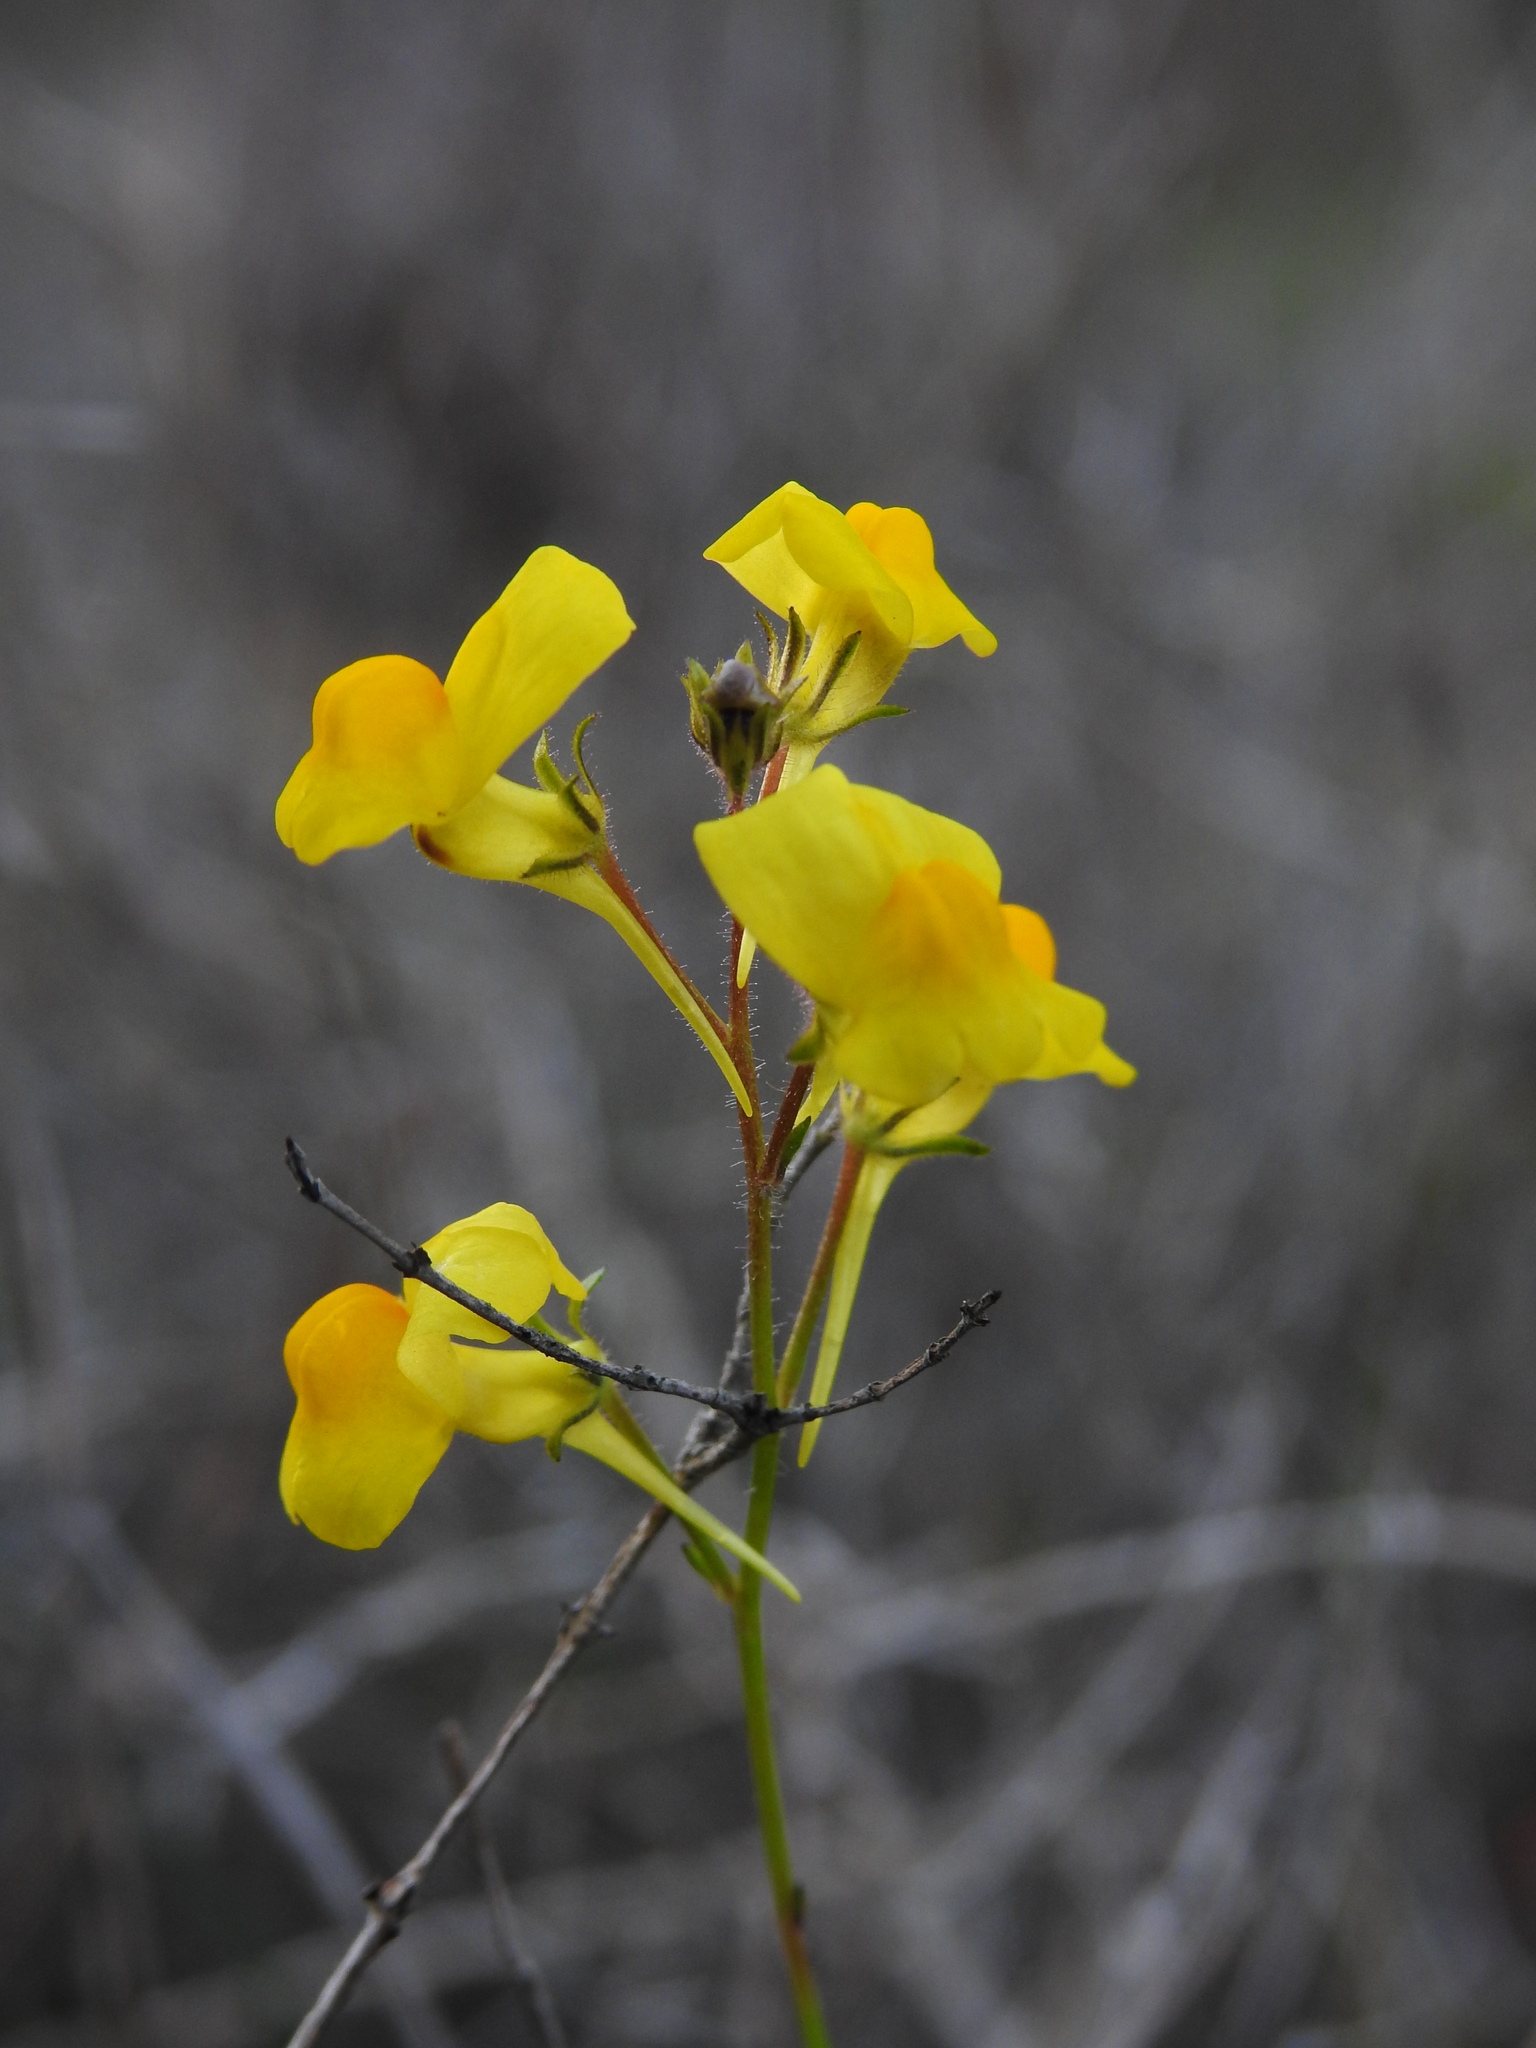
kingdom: Plantae
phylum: Tracheophyta
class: Magnoliopsida
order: Lamiales
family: Plantaginaceae
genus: Linaria
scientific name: Linaria spartea
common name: Ballast toadflax
